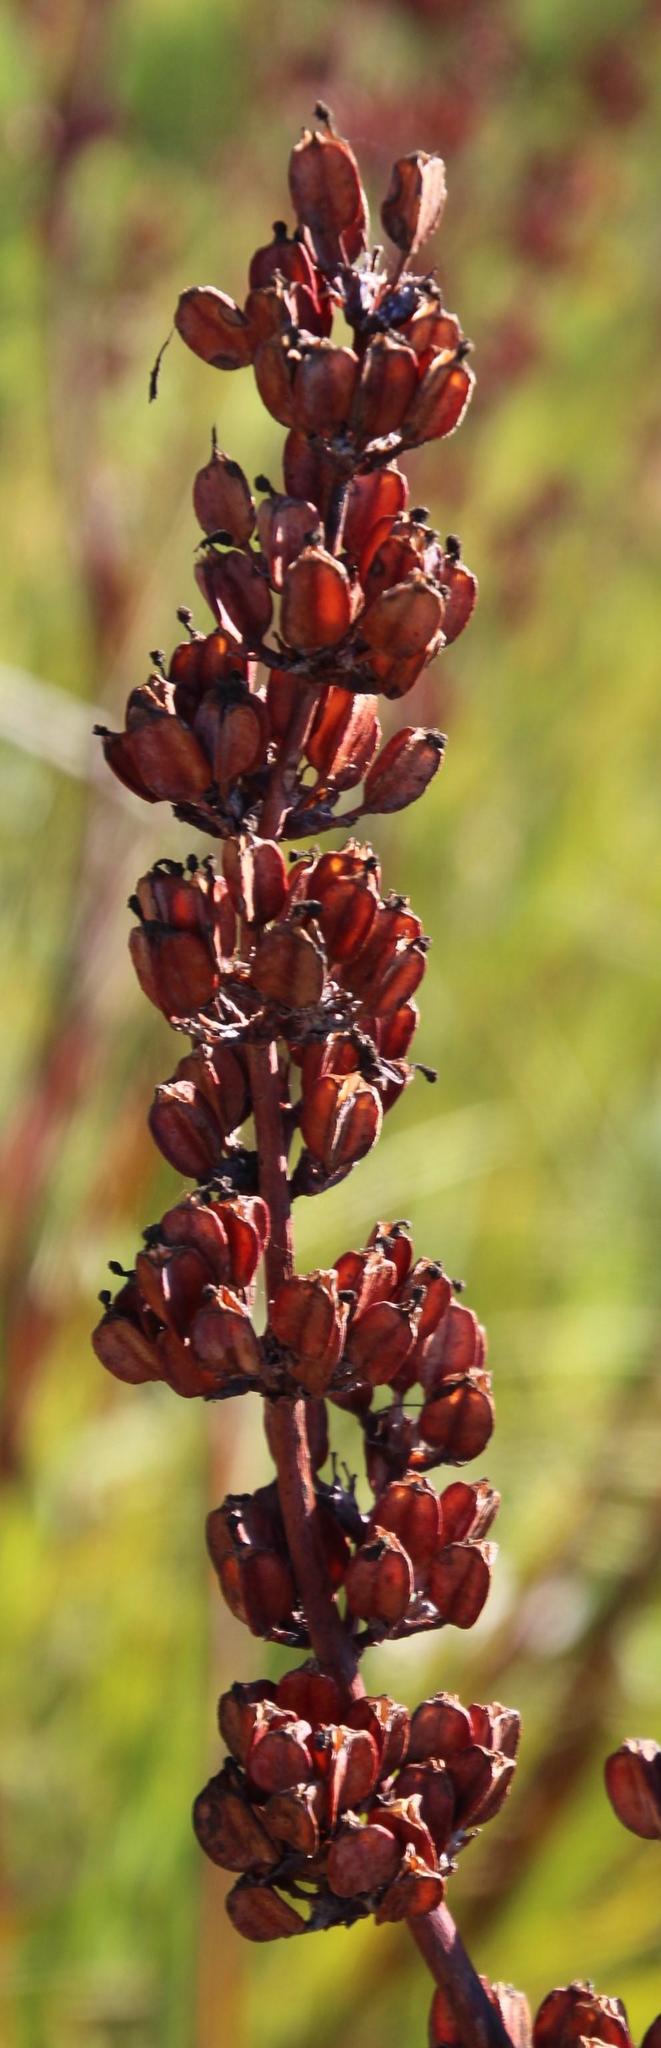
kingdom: Plantae
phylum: Tracheophyta
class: Liliopsida
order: Asparagales
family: Iridaceae
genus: Aristea
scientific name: Aristea bakeri
